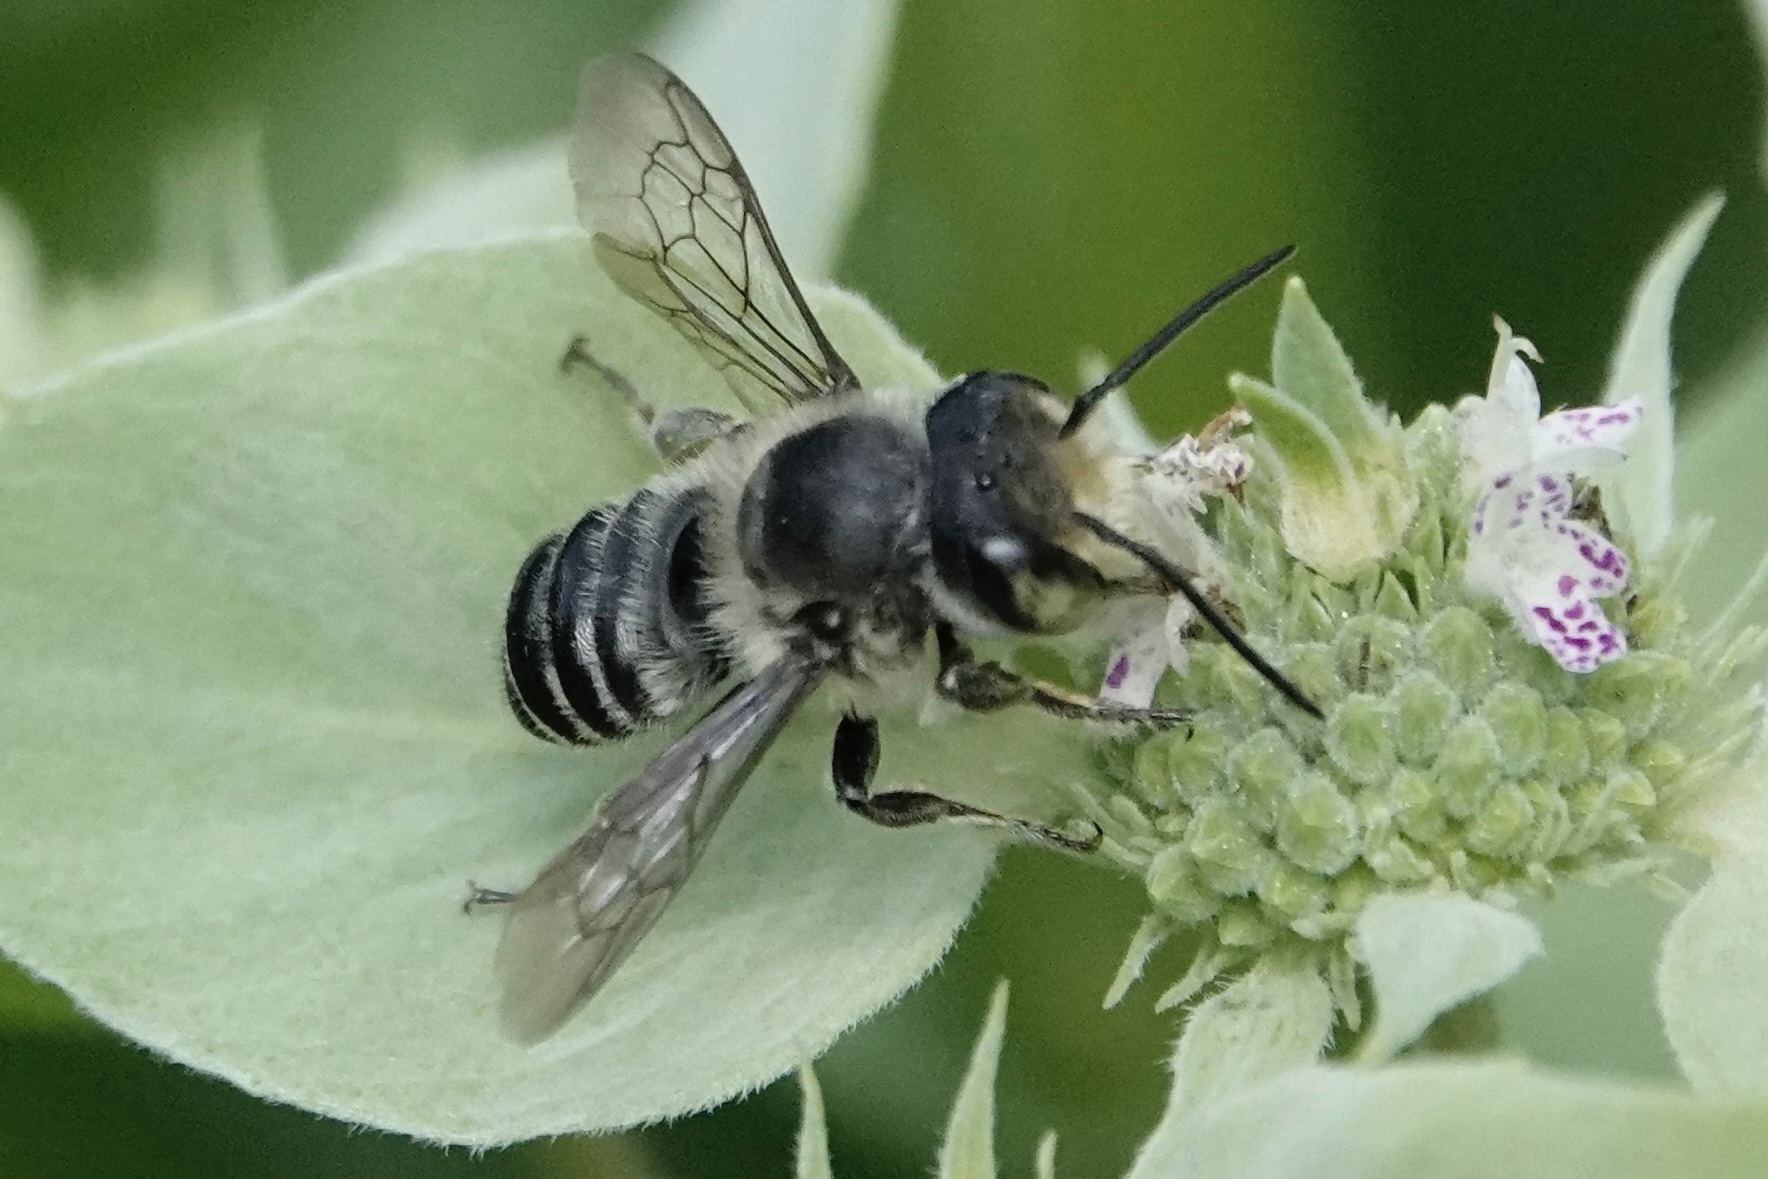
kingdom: Animalia
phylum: Arthropoda
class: Insecta
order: Hymenoptera
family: Megachilidae
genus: Megachile
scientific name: Megachile mendica
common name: Flat-tailed leafcutter
